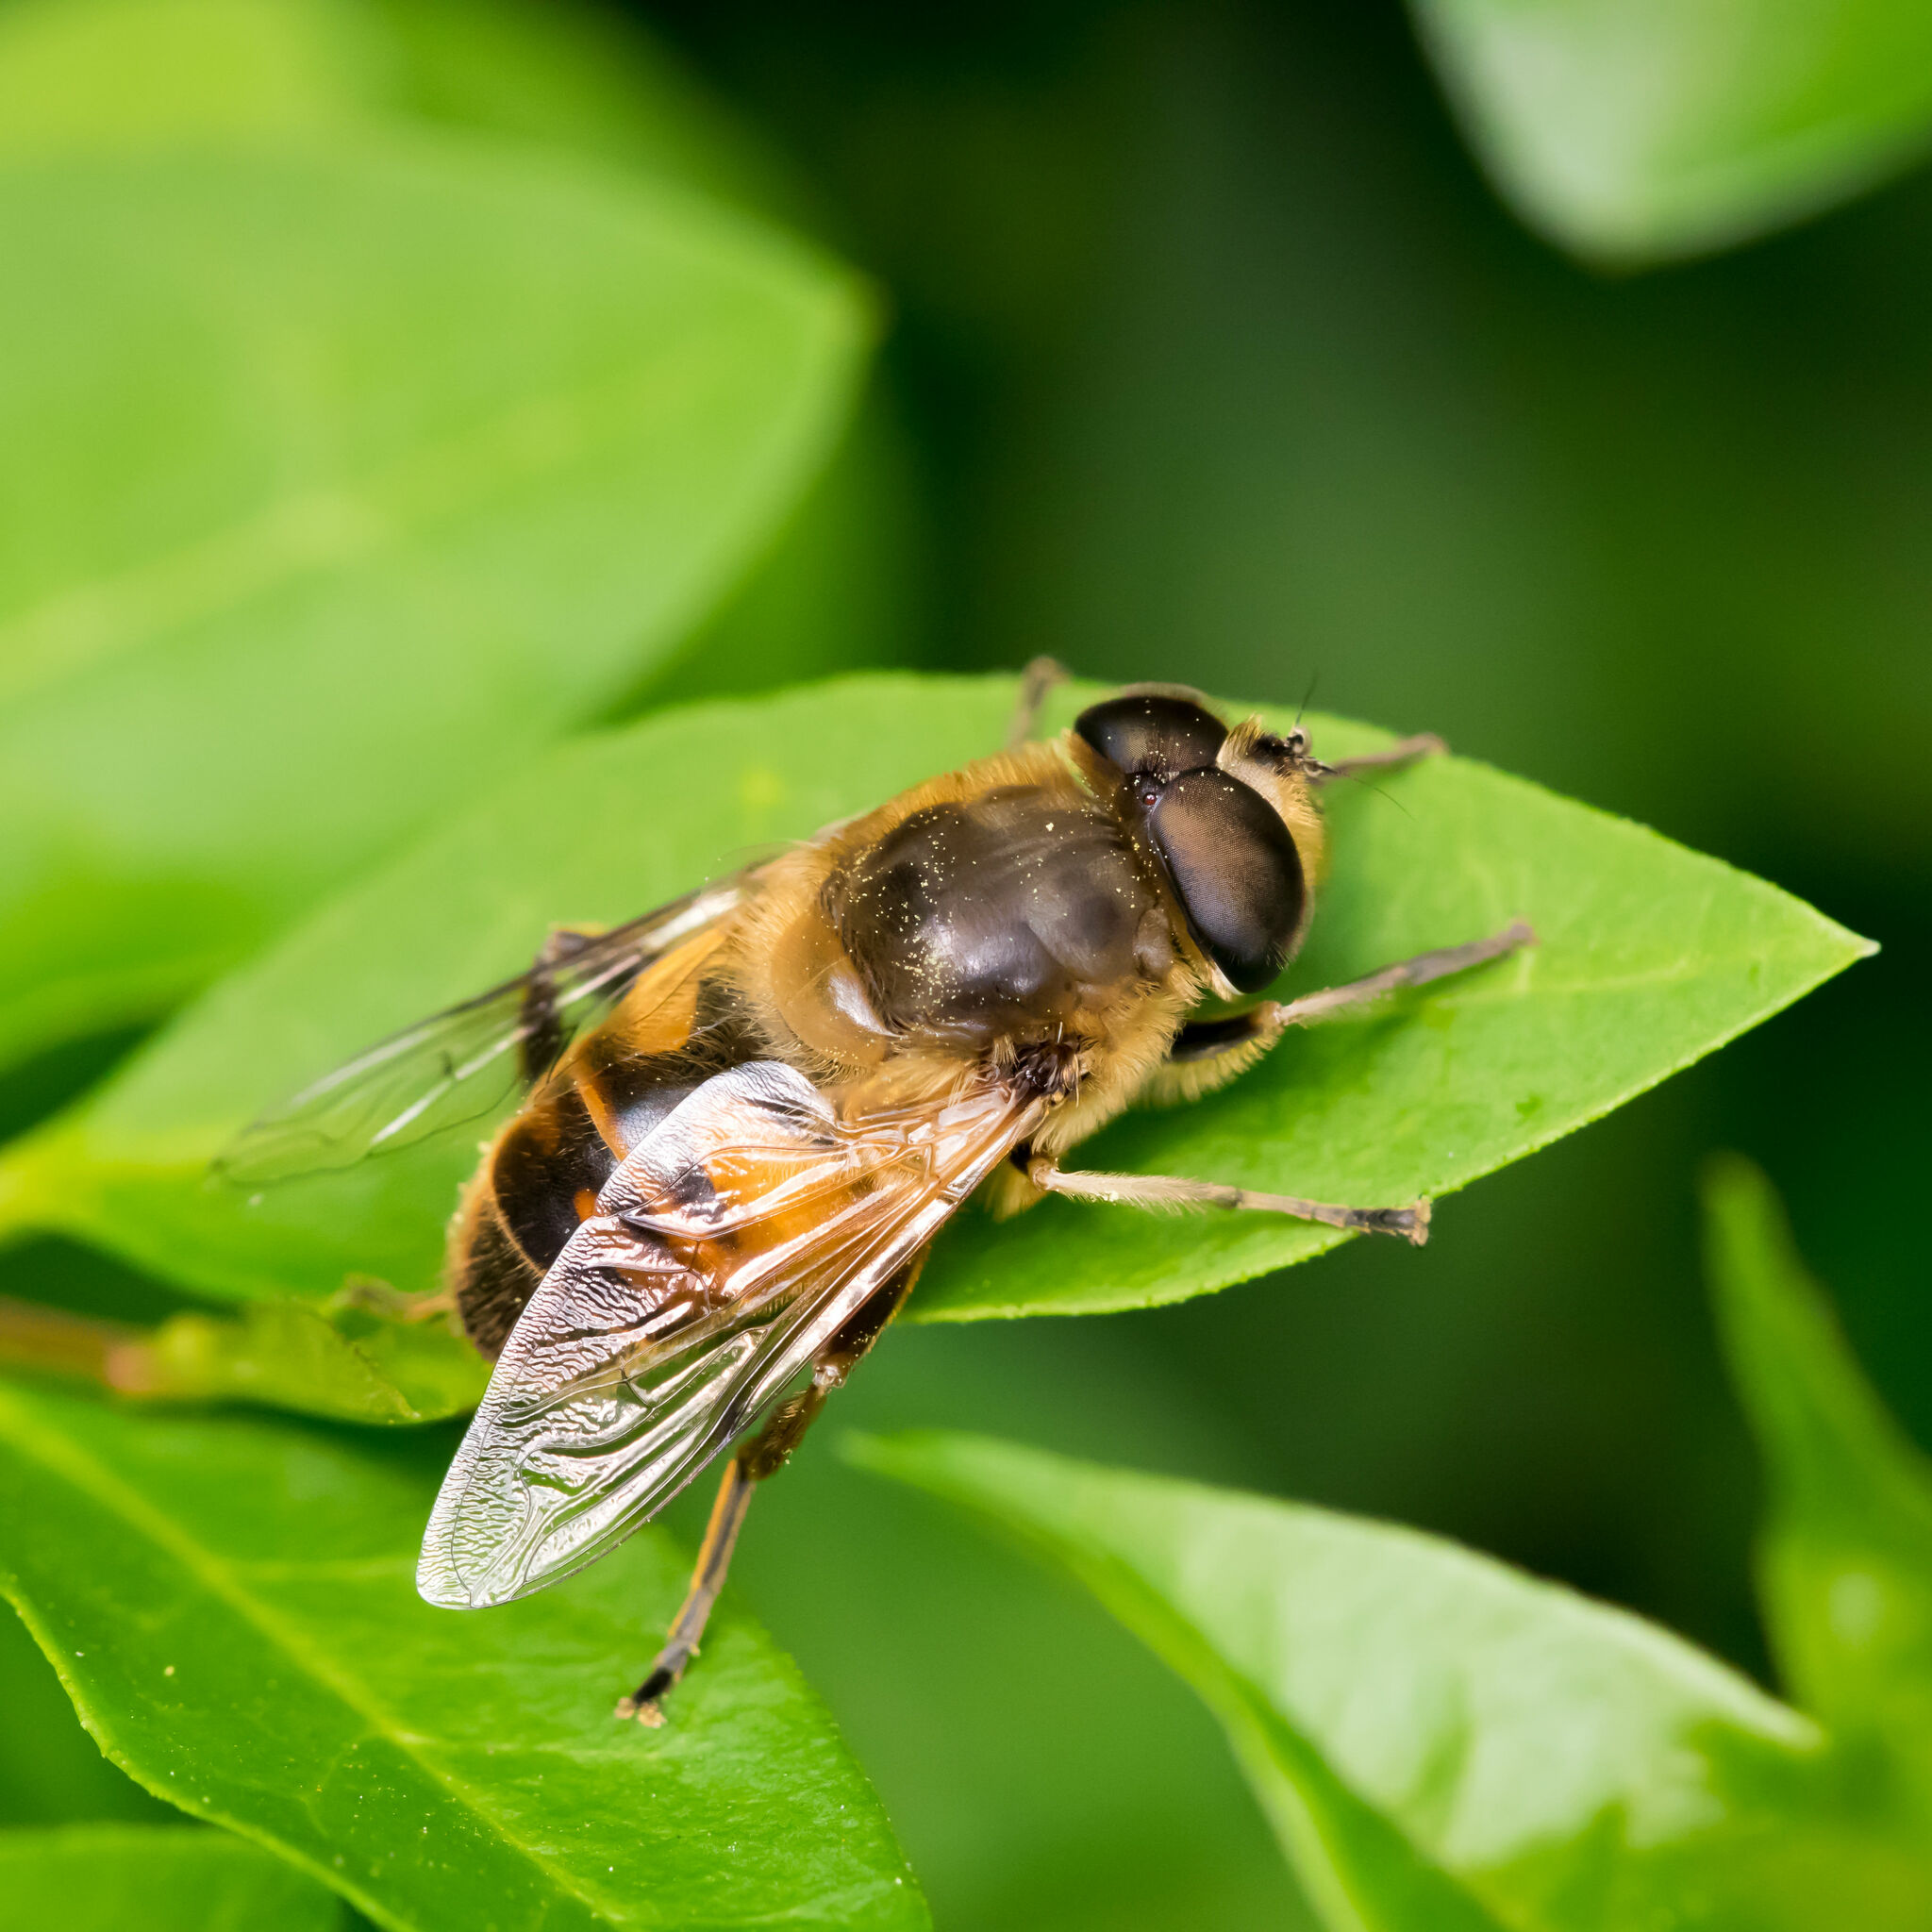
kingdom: Animalia
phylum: Arthropoda
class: Insecta
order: Diptera
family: Syrphidae
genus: Eristalis
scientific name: Eristalis tenax
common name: Drone fly
